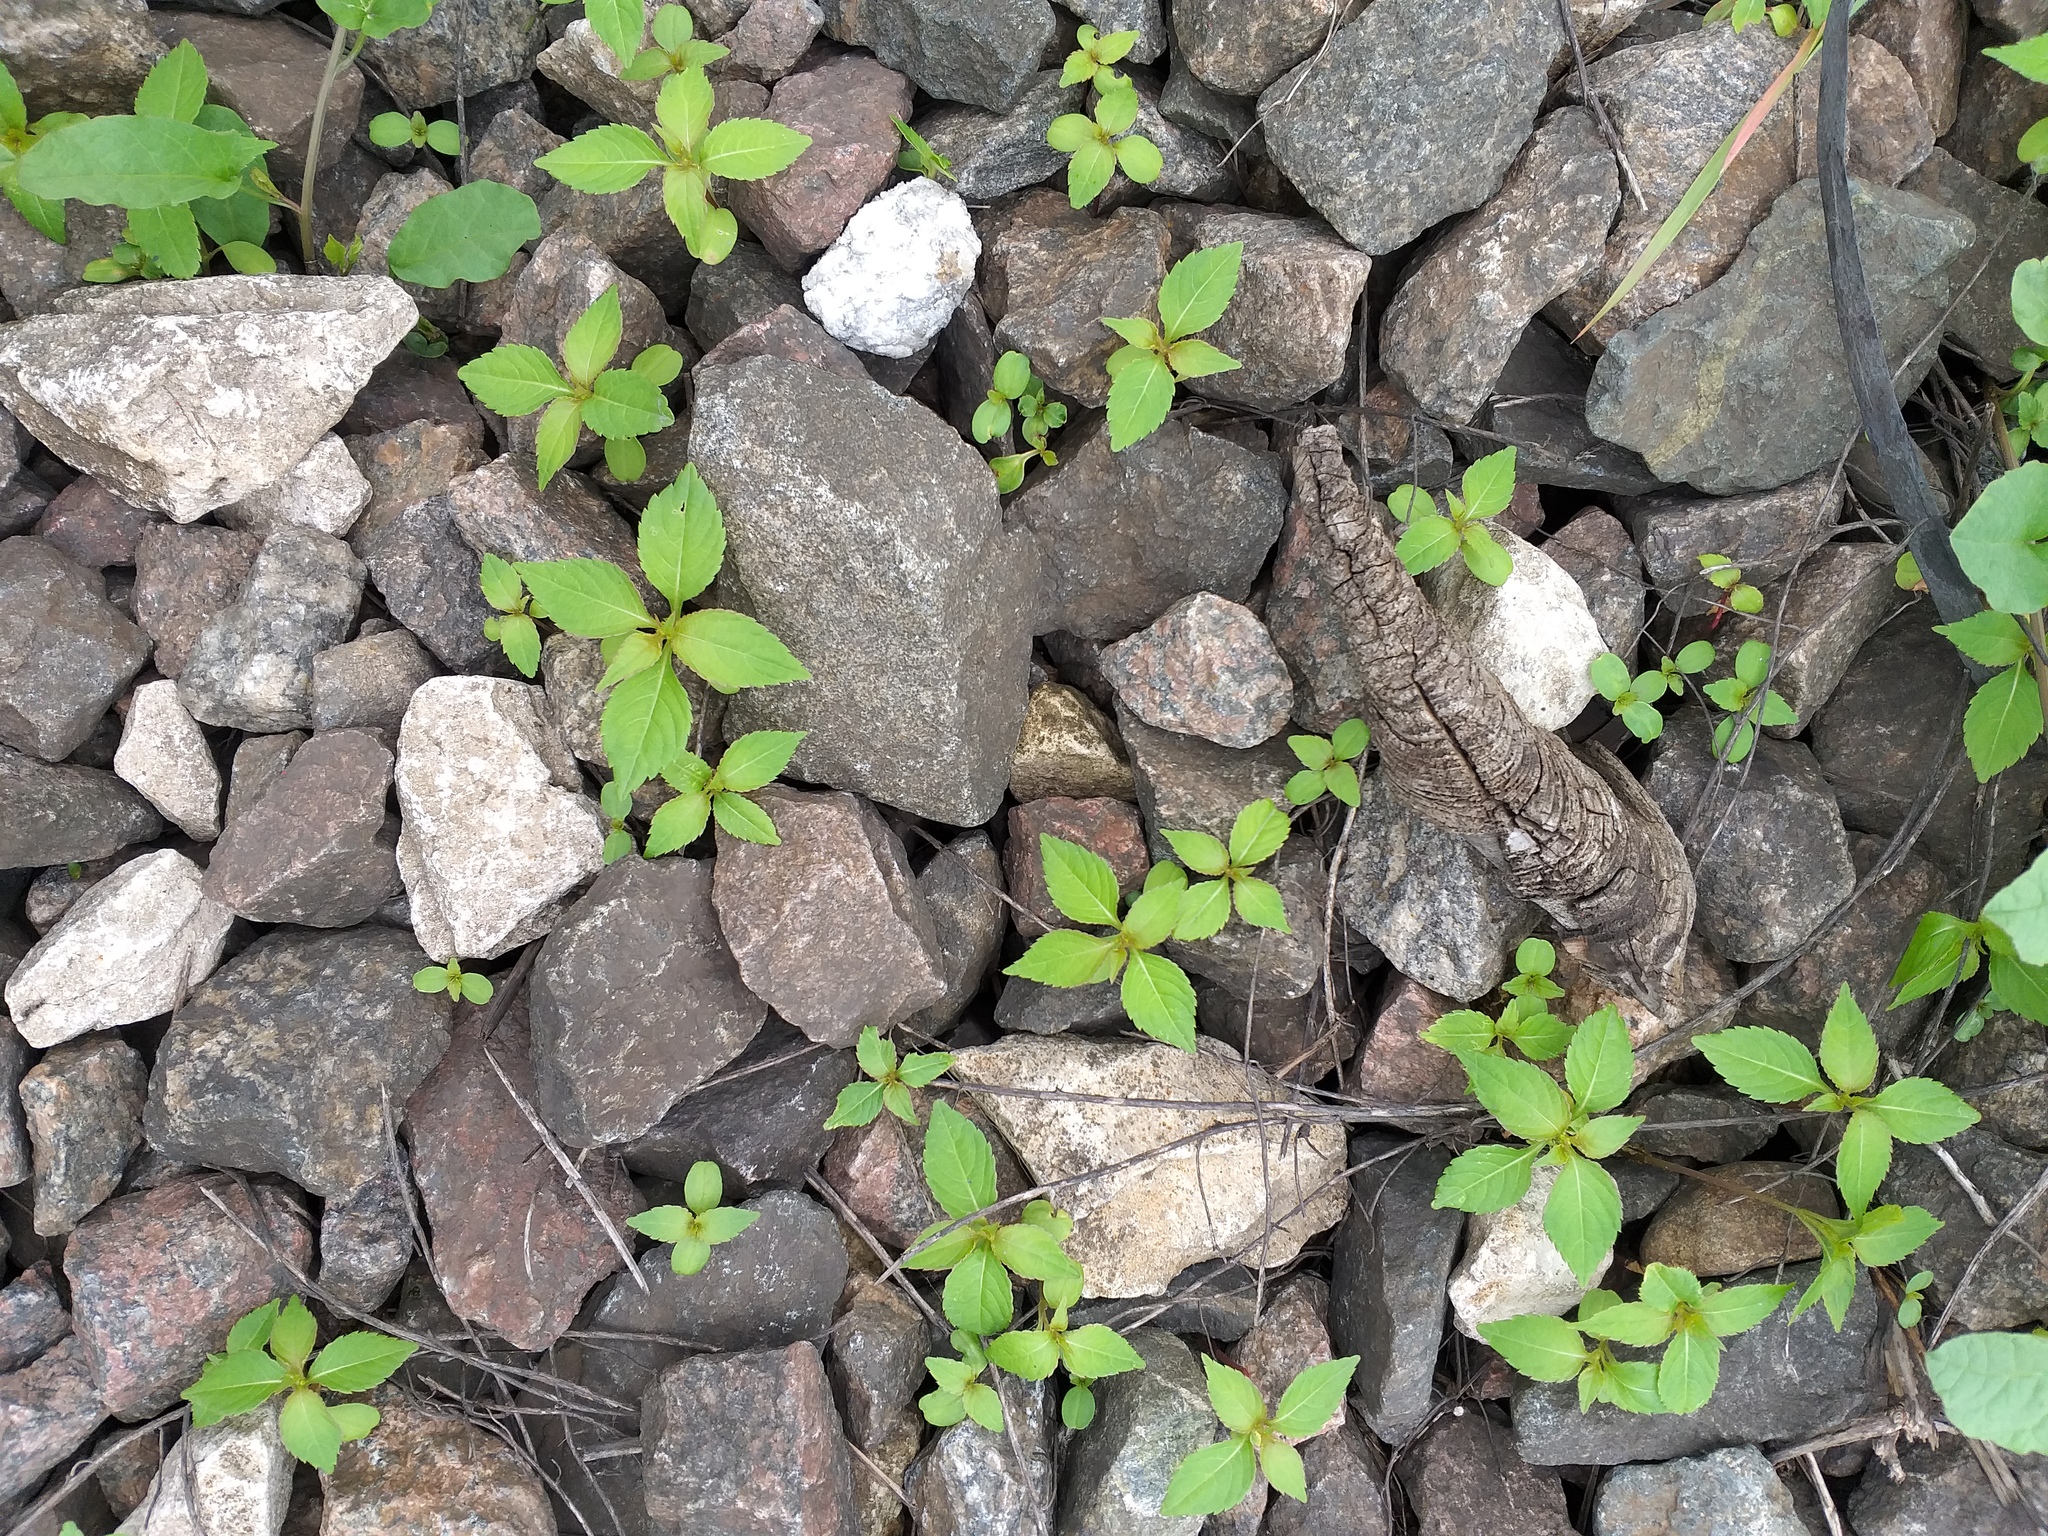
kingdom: Plantae
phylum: Tracheophyta
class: Magnoliopsida
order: Ericales
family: Balsaminaceae
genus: Impatiens
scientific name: Impatiens parviflora
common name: Small balsam
